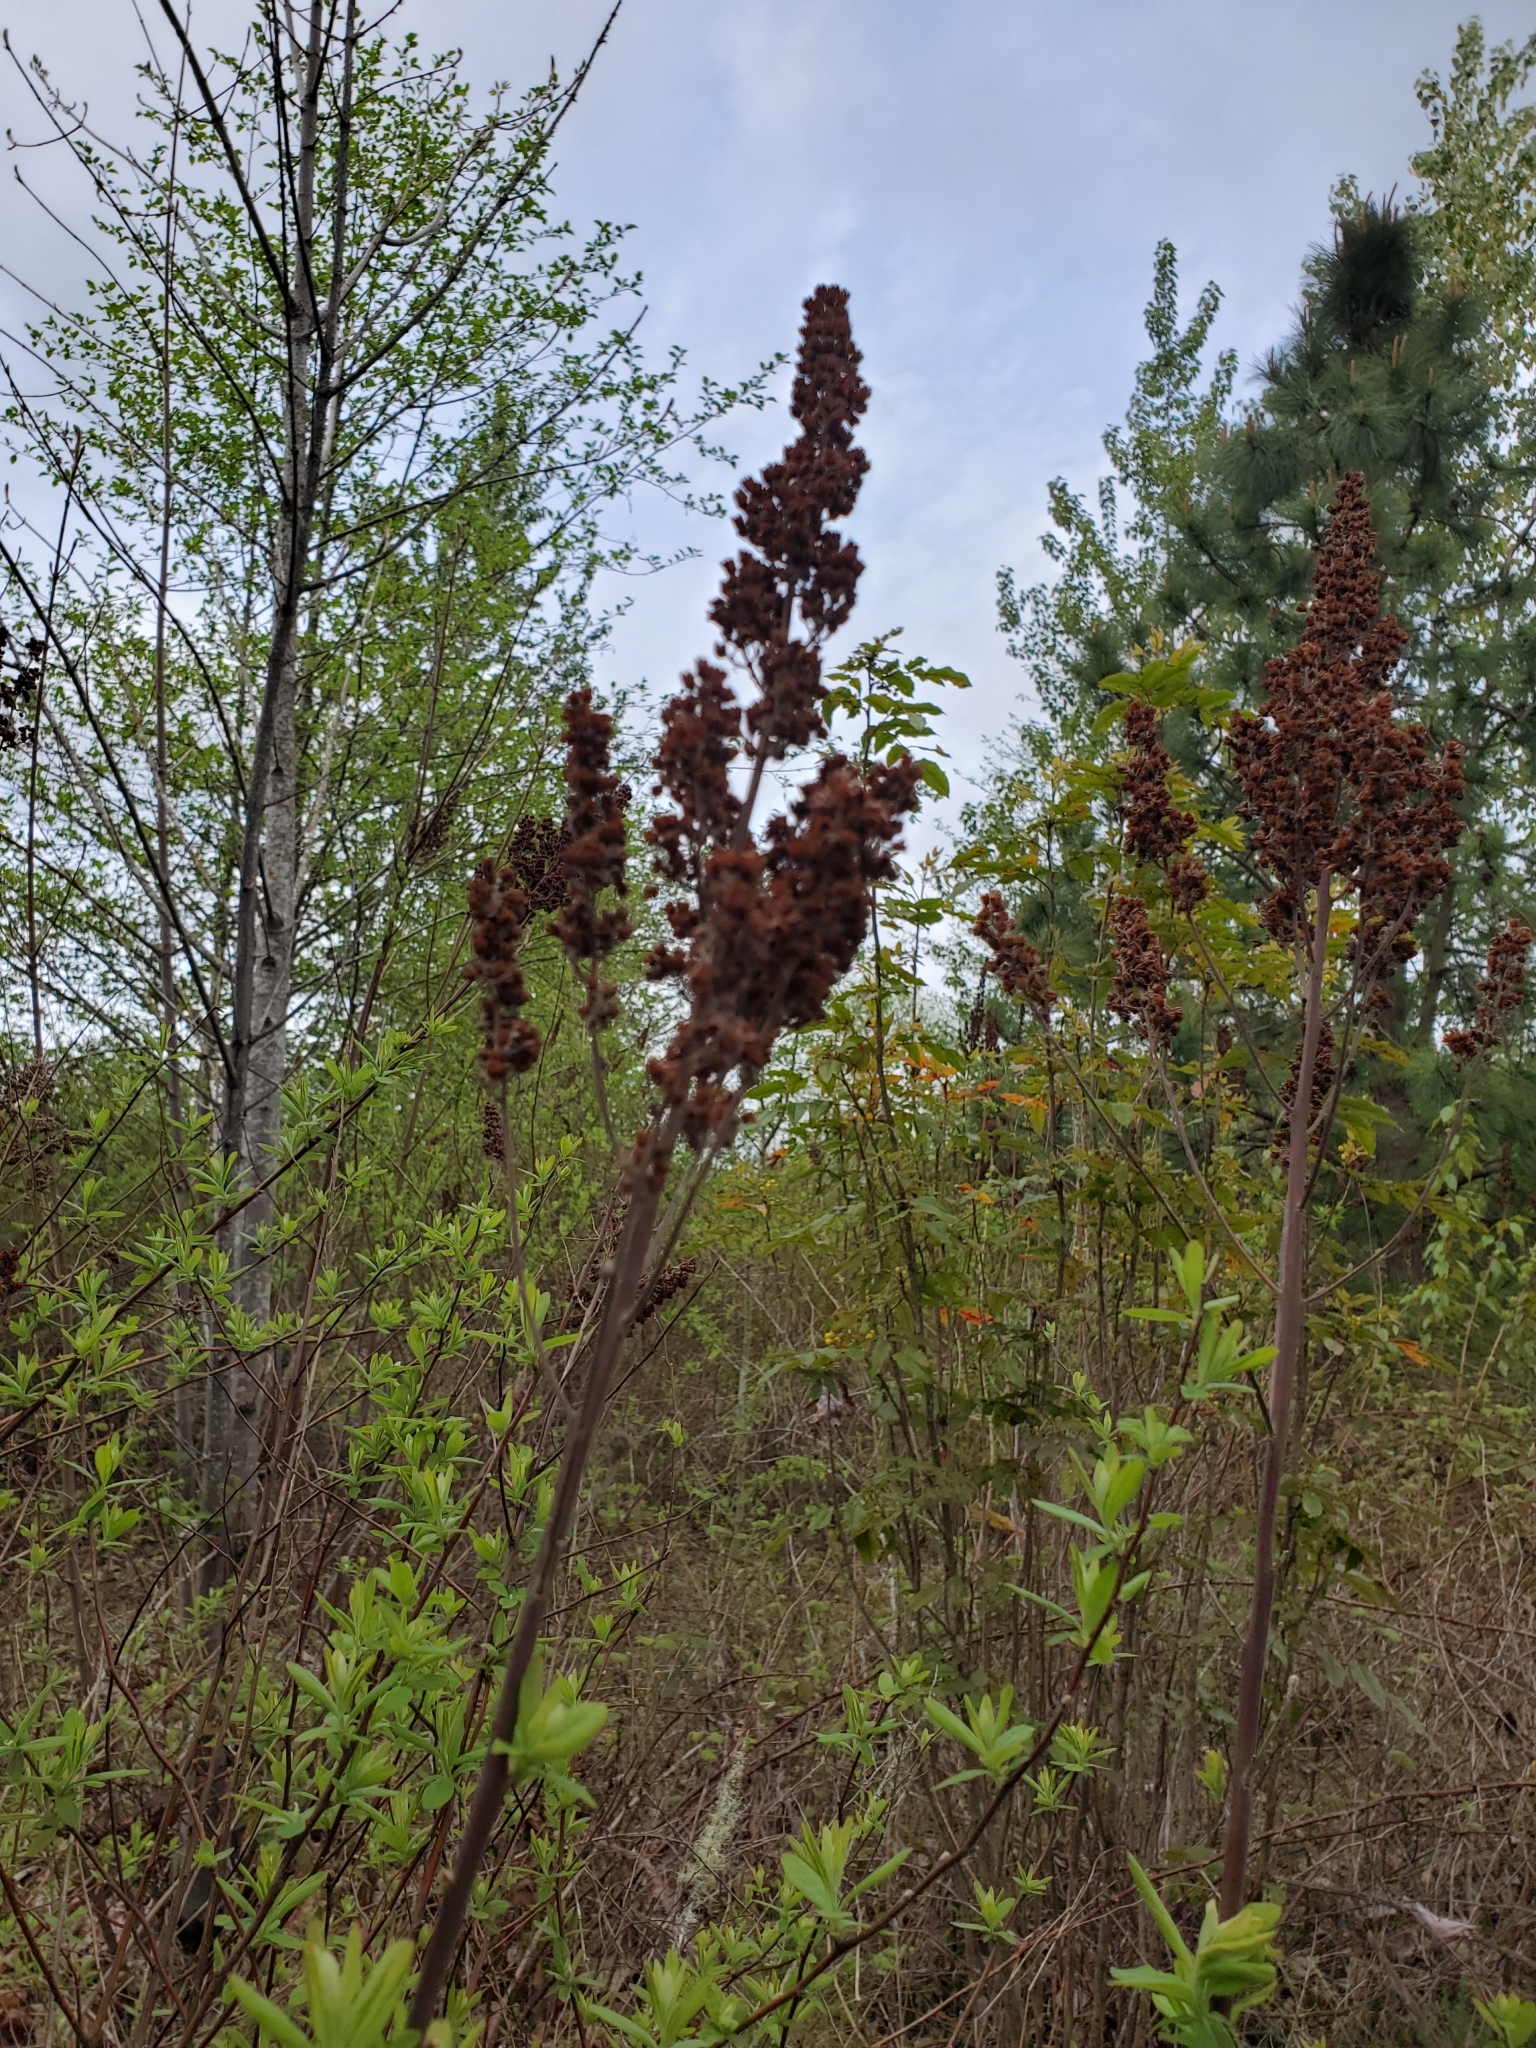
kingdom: Plantae
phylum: Tracheophyta
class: Magnoliopsida
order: Rosales
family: Rosaceae
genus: Spiraea
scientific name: Spiraea douglasii
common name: Steeplebush
